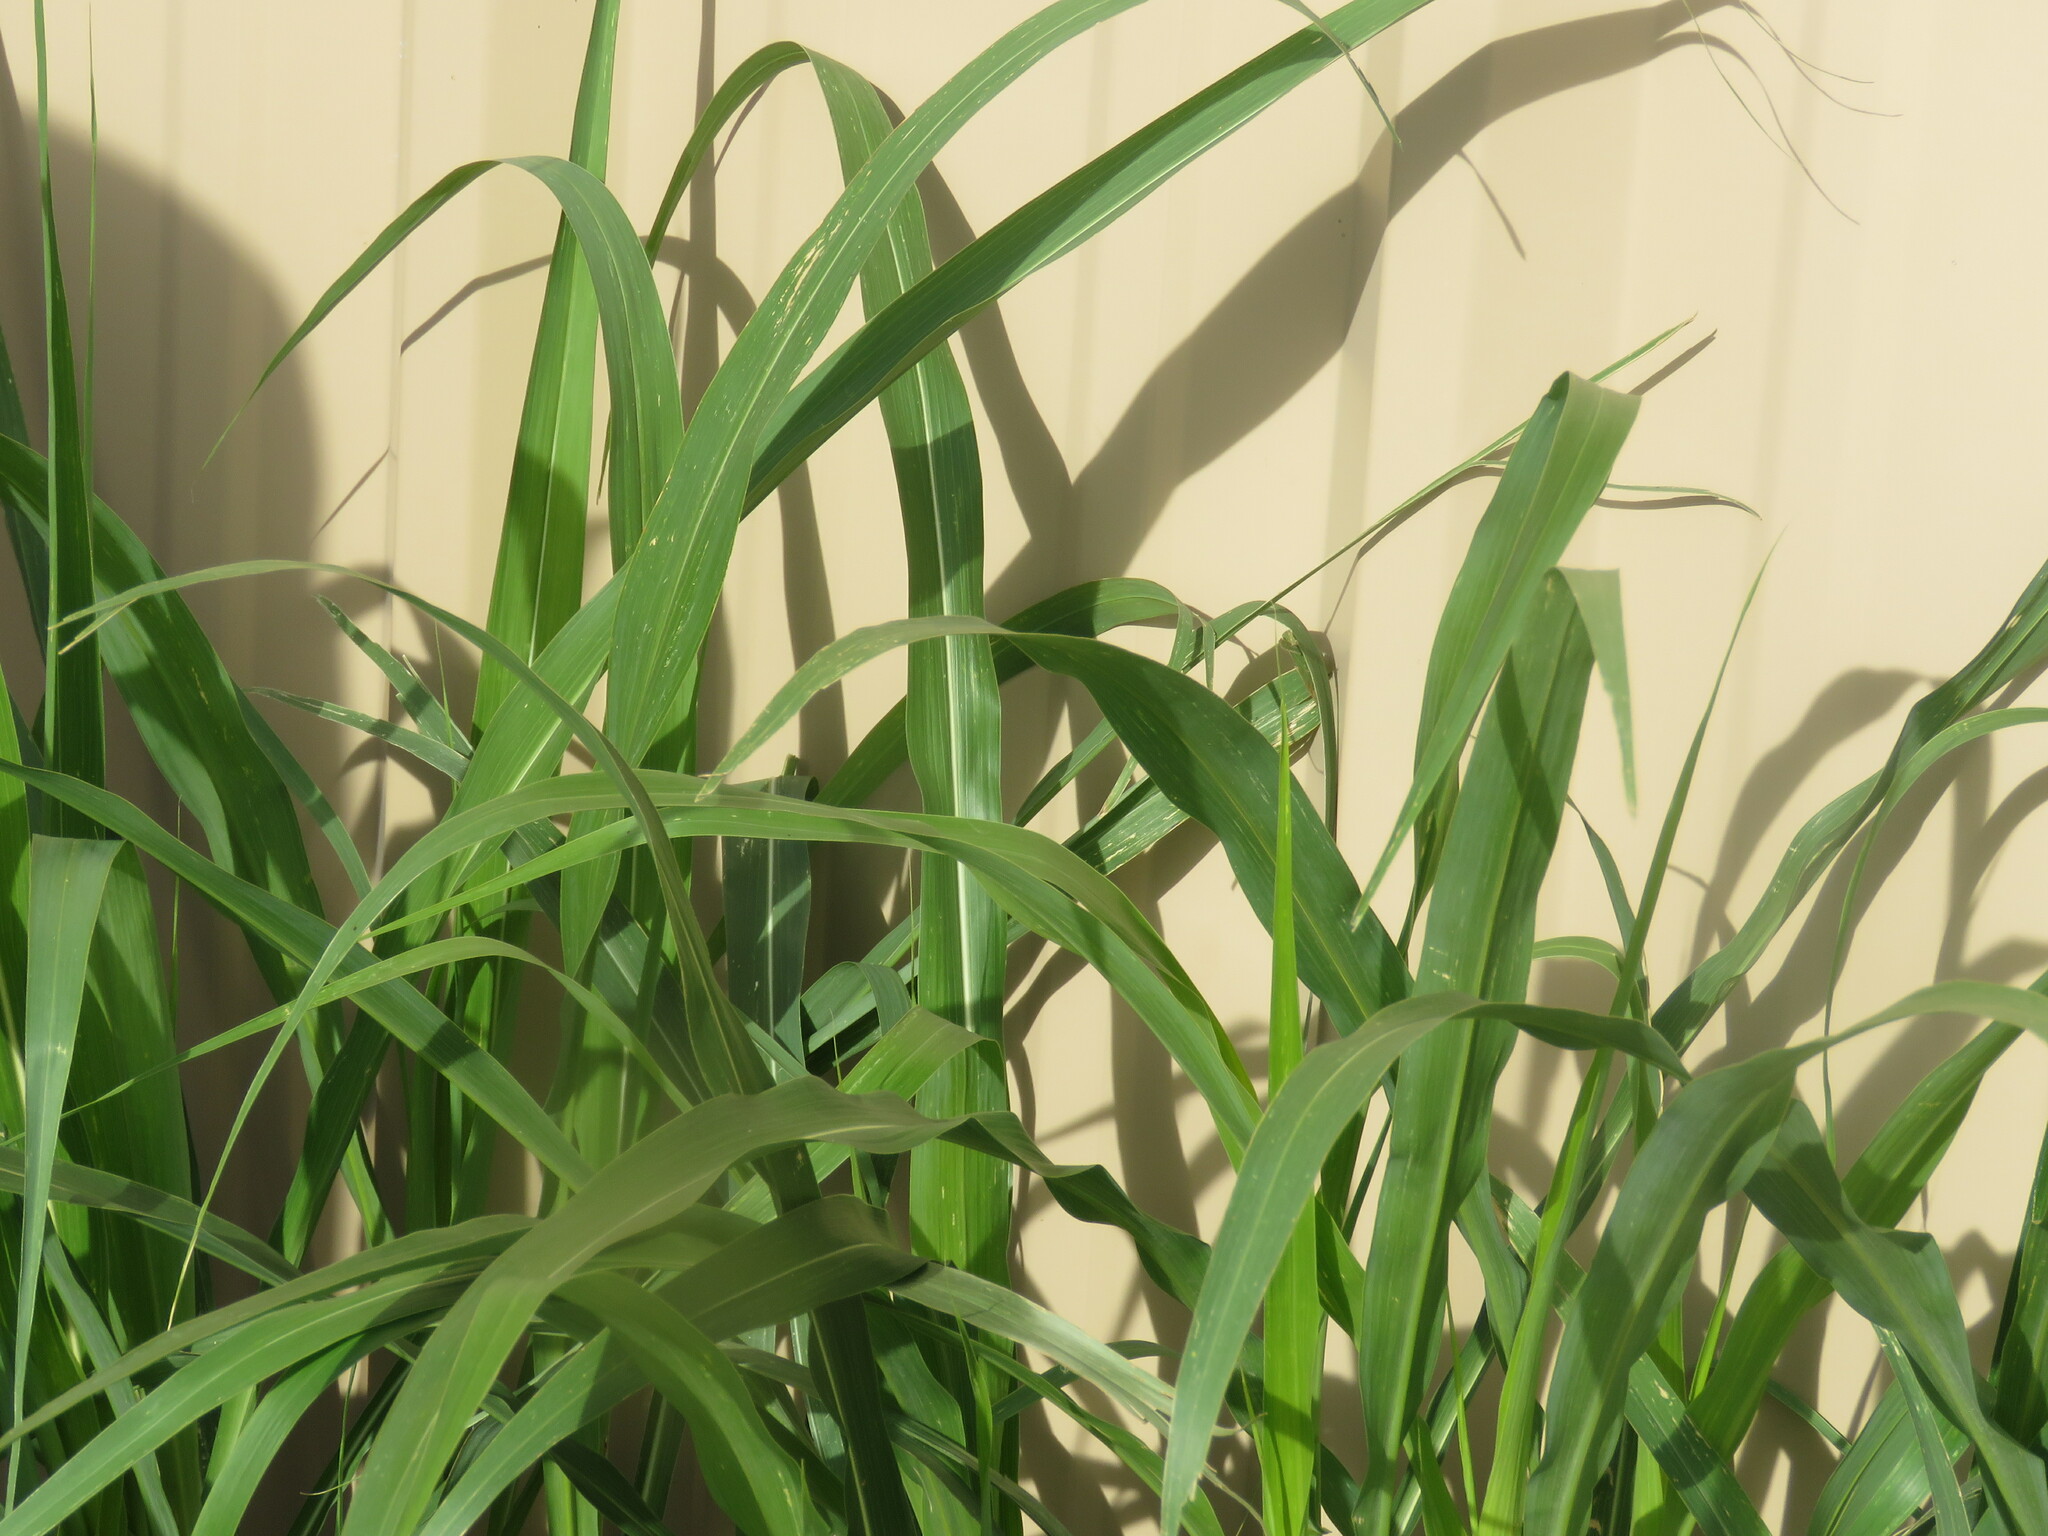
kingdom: Plantae
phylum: Tracheophyta
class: Liliopsida
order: Poales
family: Poaceae
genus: Sorghum
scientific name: Sorghum halepense
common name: Johnson-grass
